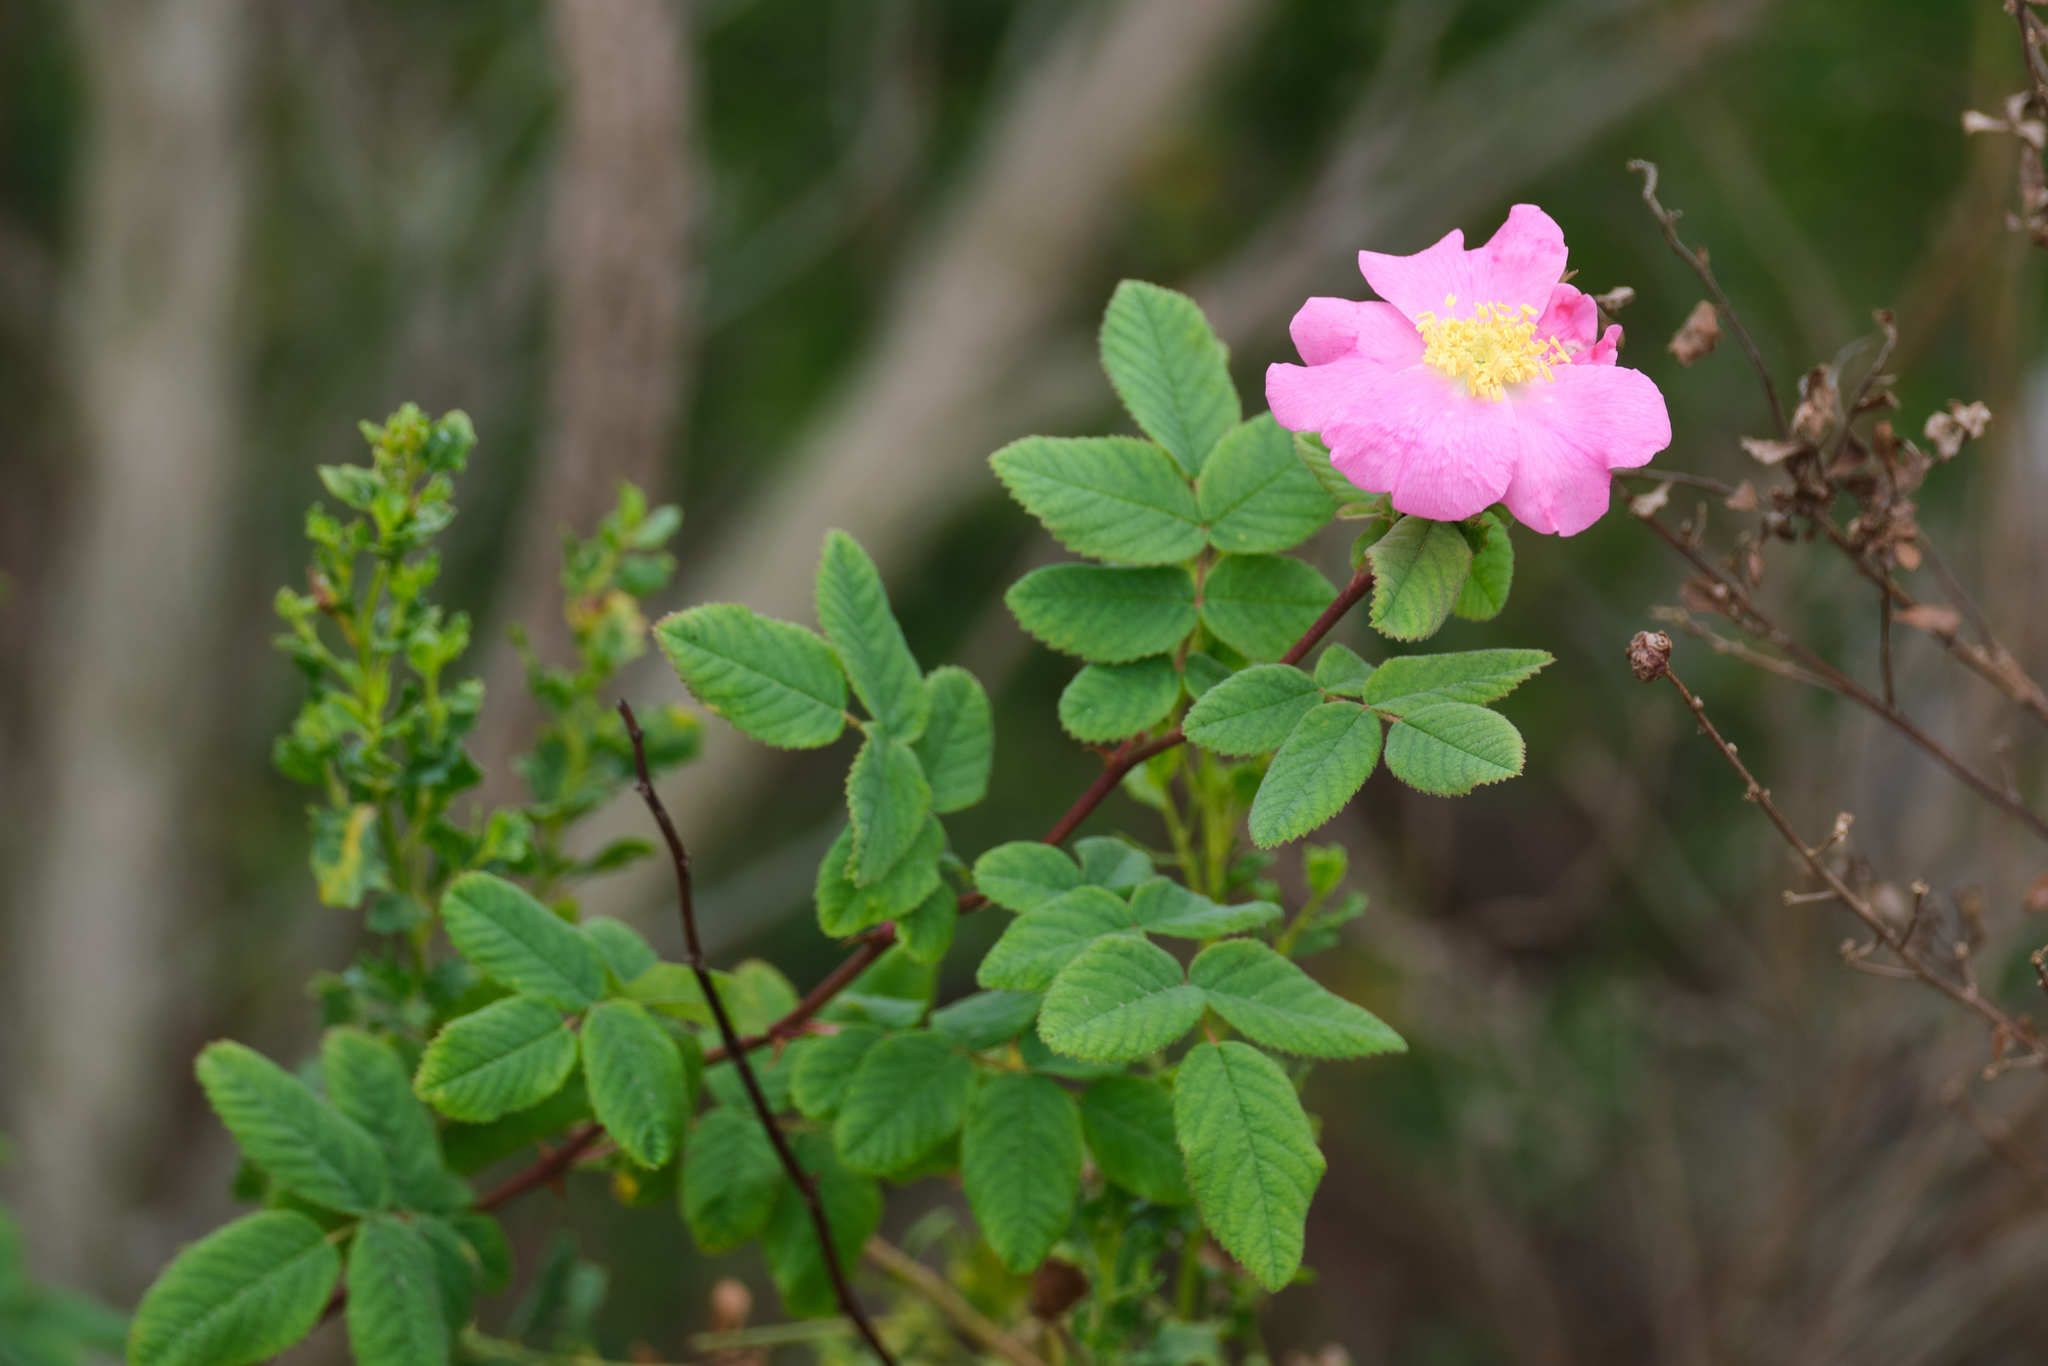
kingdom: Plantae
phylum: Tracheophyta
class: Magnoliopsida
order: Rosales
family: Rosaceae
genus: Rosa
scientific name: Rosa californica
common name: California rose
